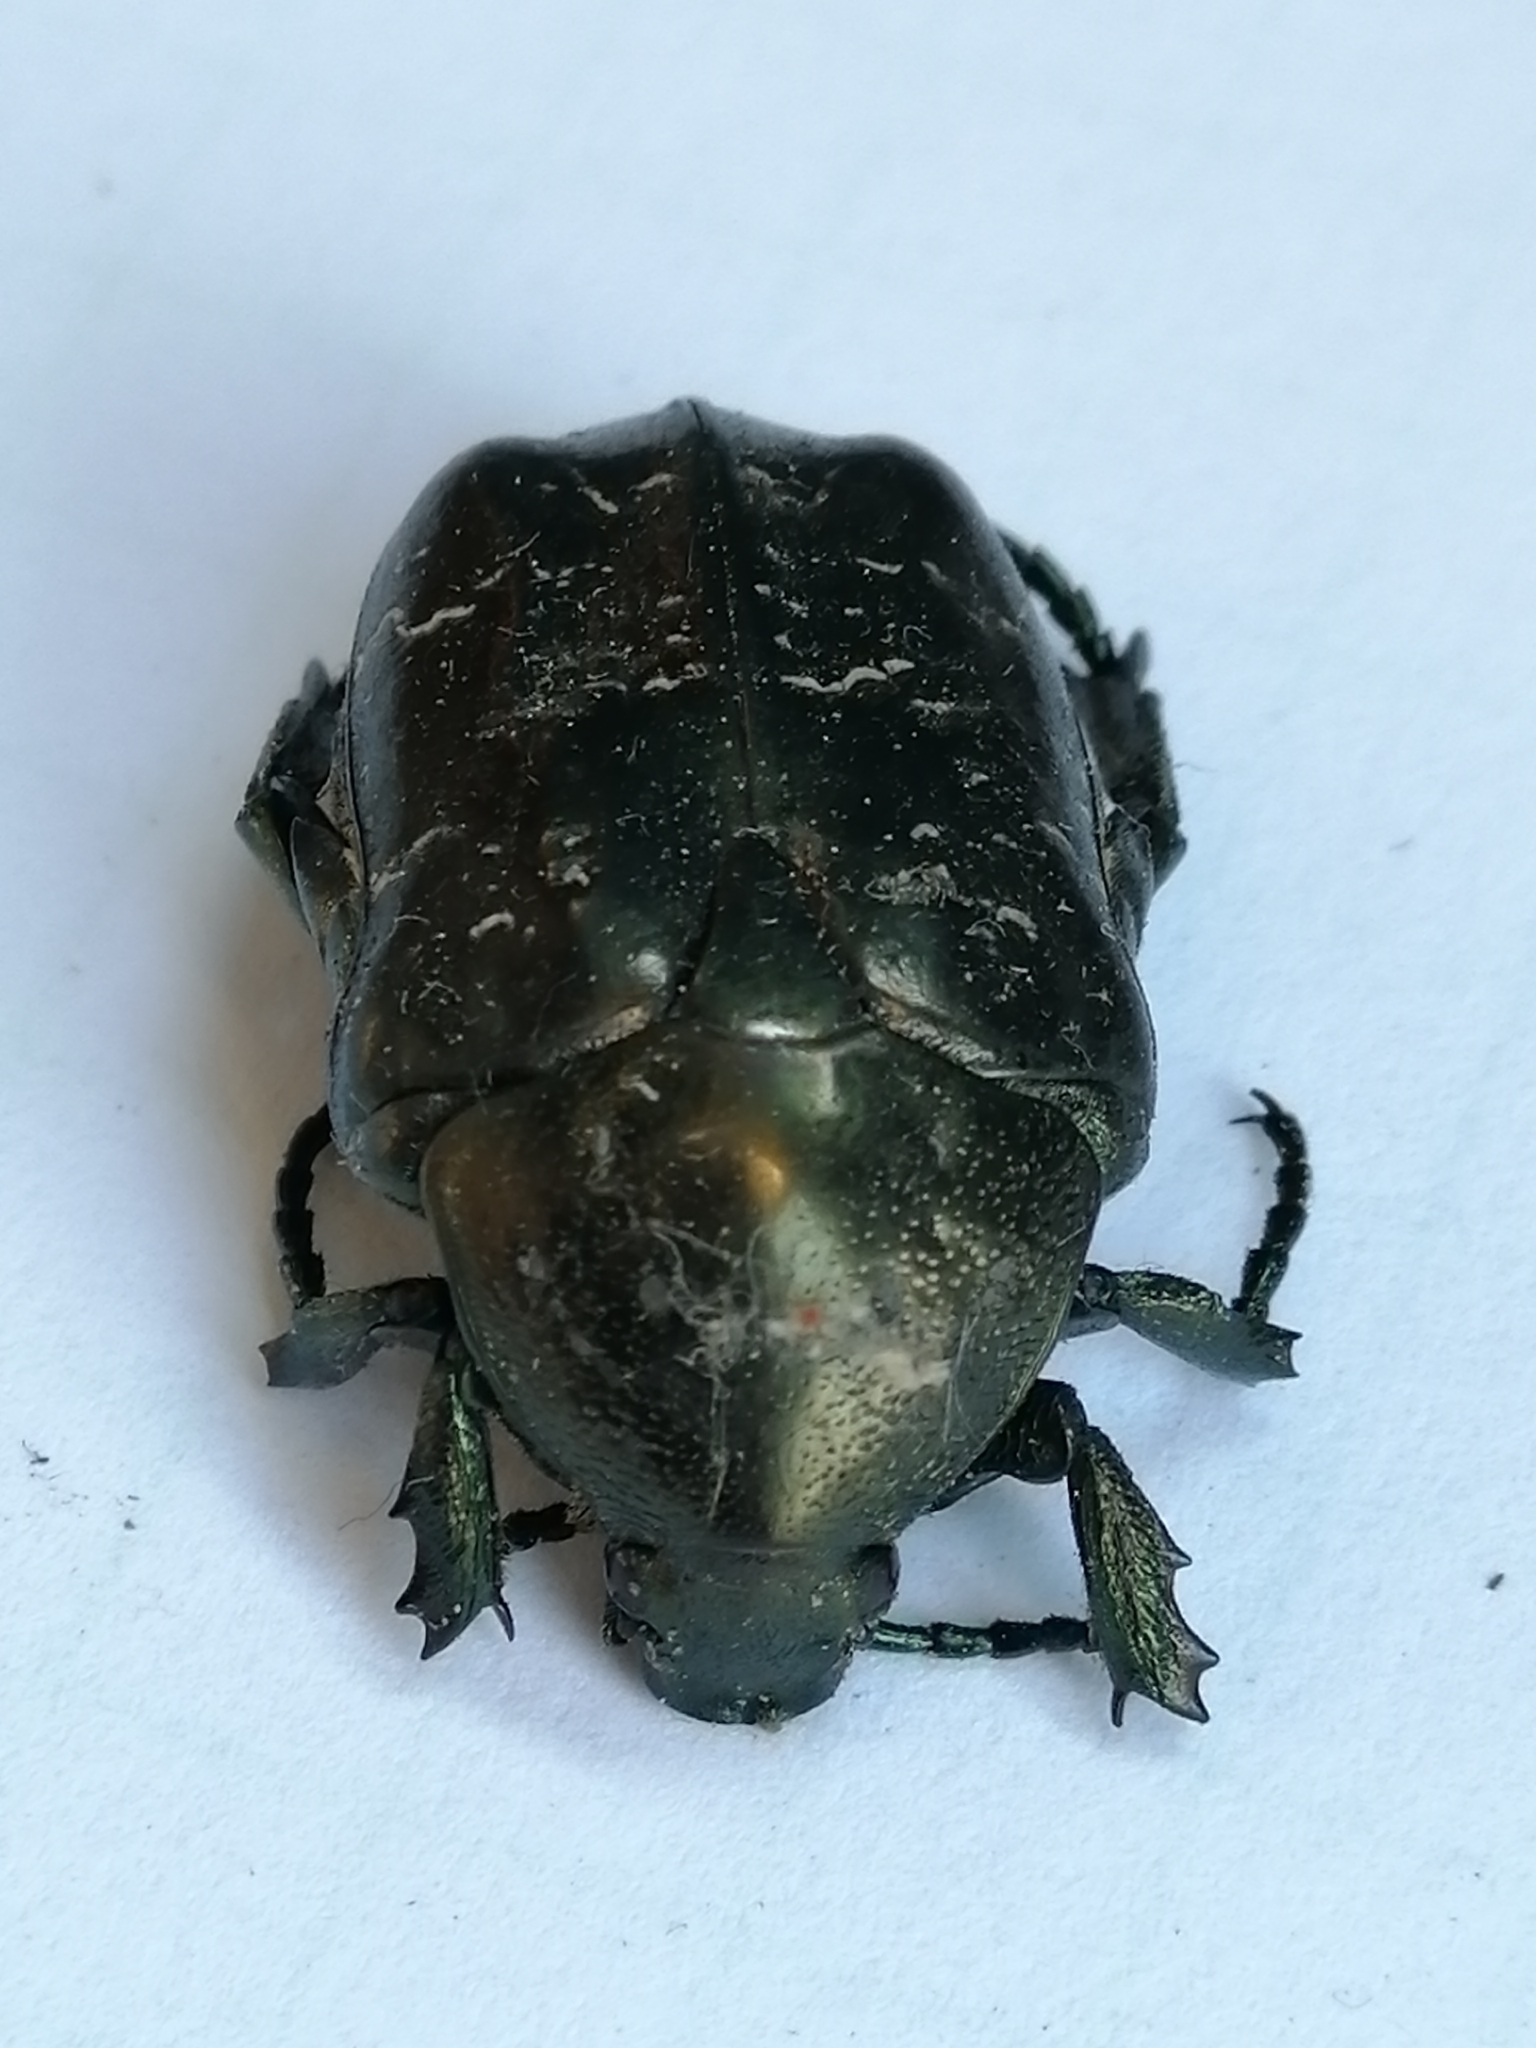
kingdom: Animalia
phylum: Arthropoda
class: Insecta
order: Coleoptera
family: Scarabaeidae
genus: Protaetia
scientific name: Protaetia marmorata
